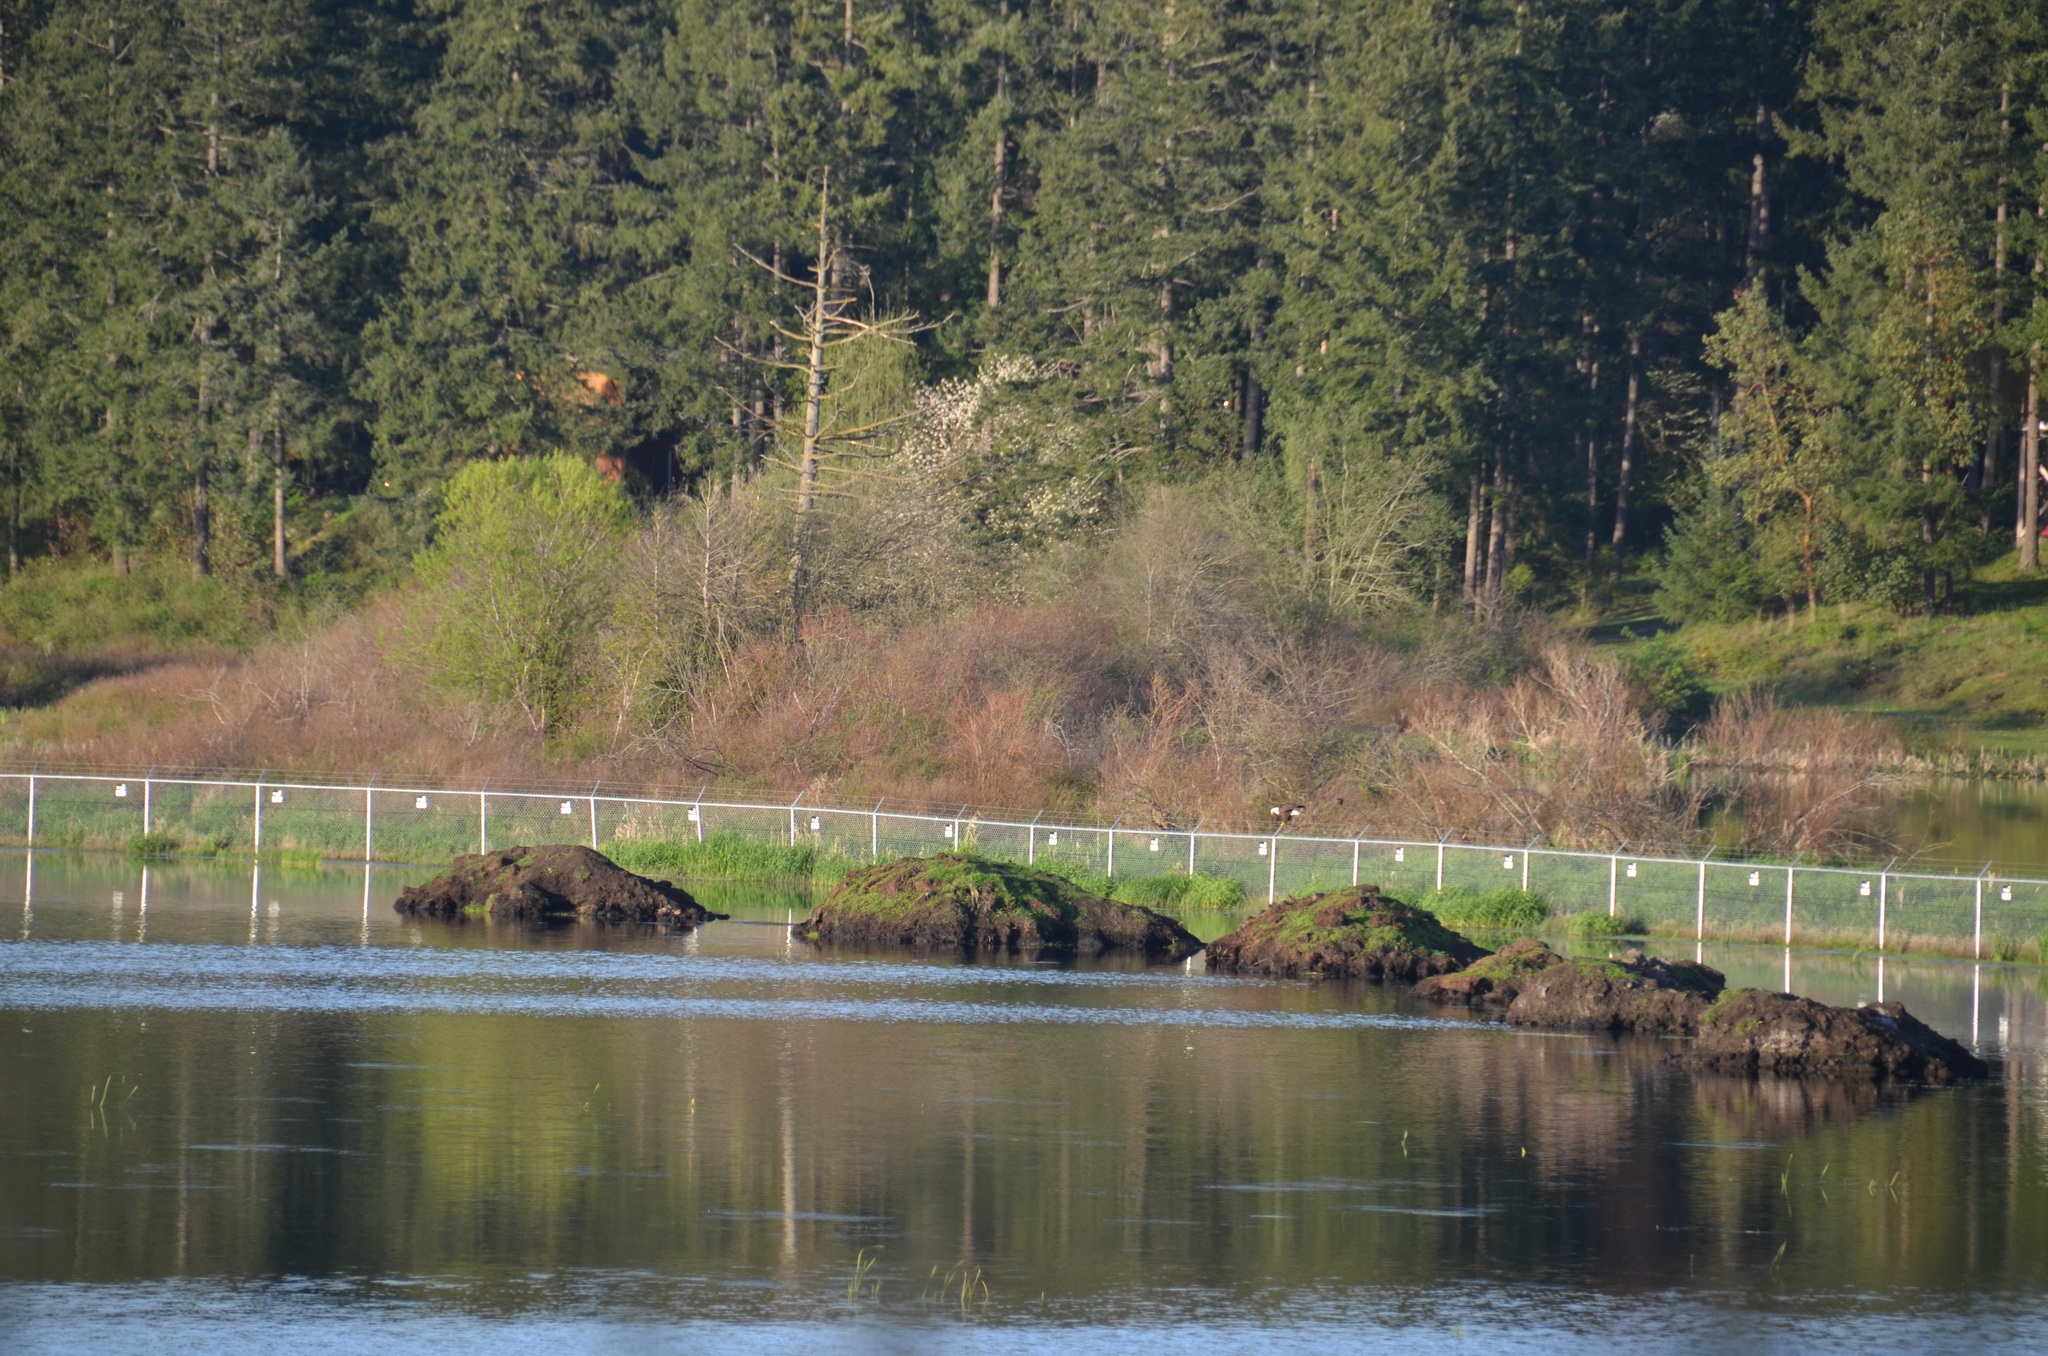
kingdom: Animalia
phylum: Chordata
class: Aves
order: Accipitriformes
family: Accipitridae
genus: Haliaeetus
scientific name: Haliaeetus leucocephalus
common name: Bald eagle
